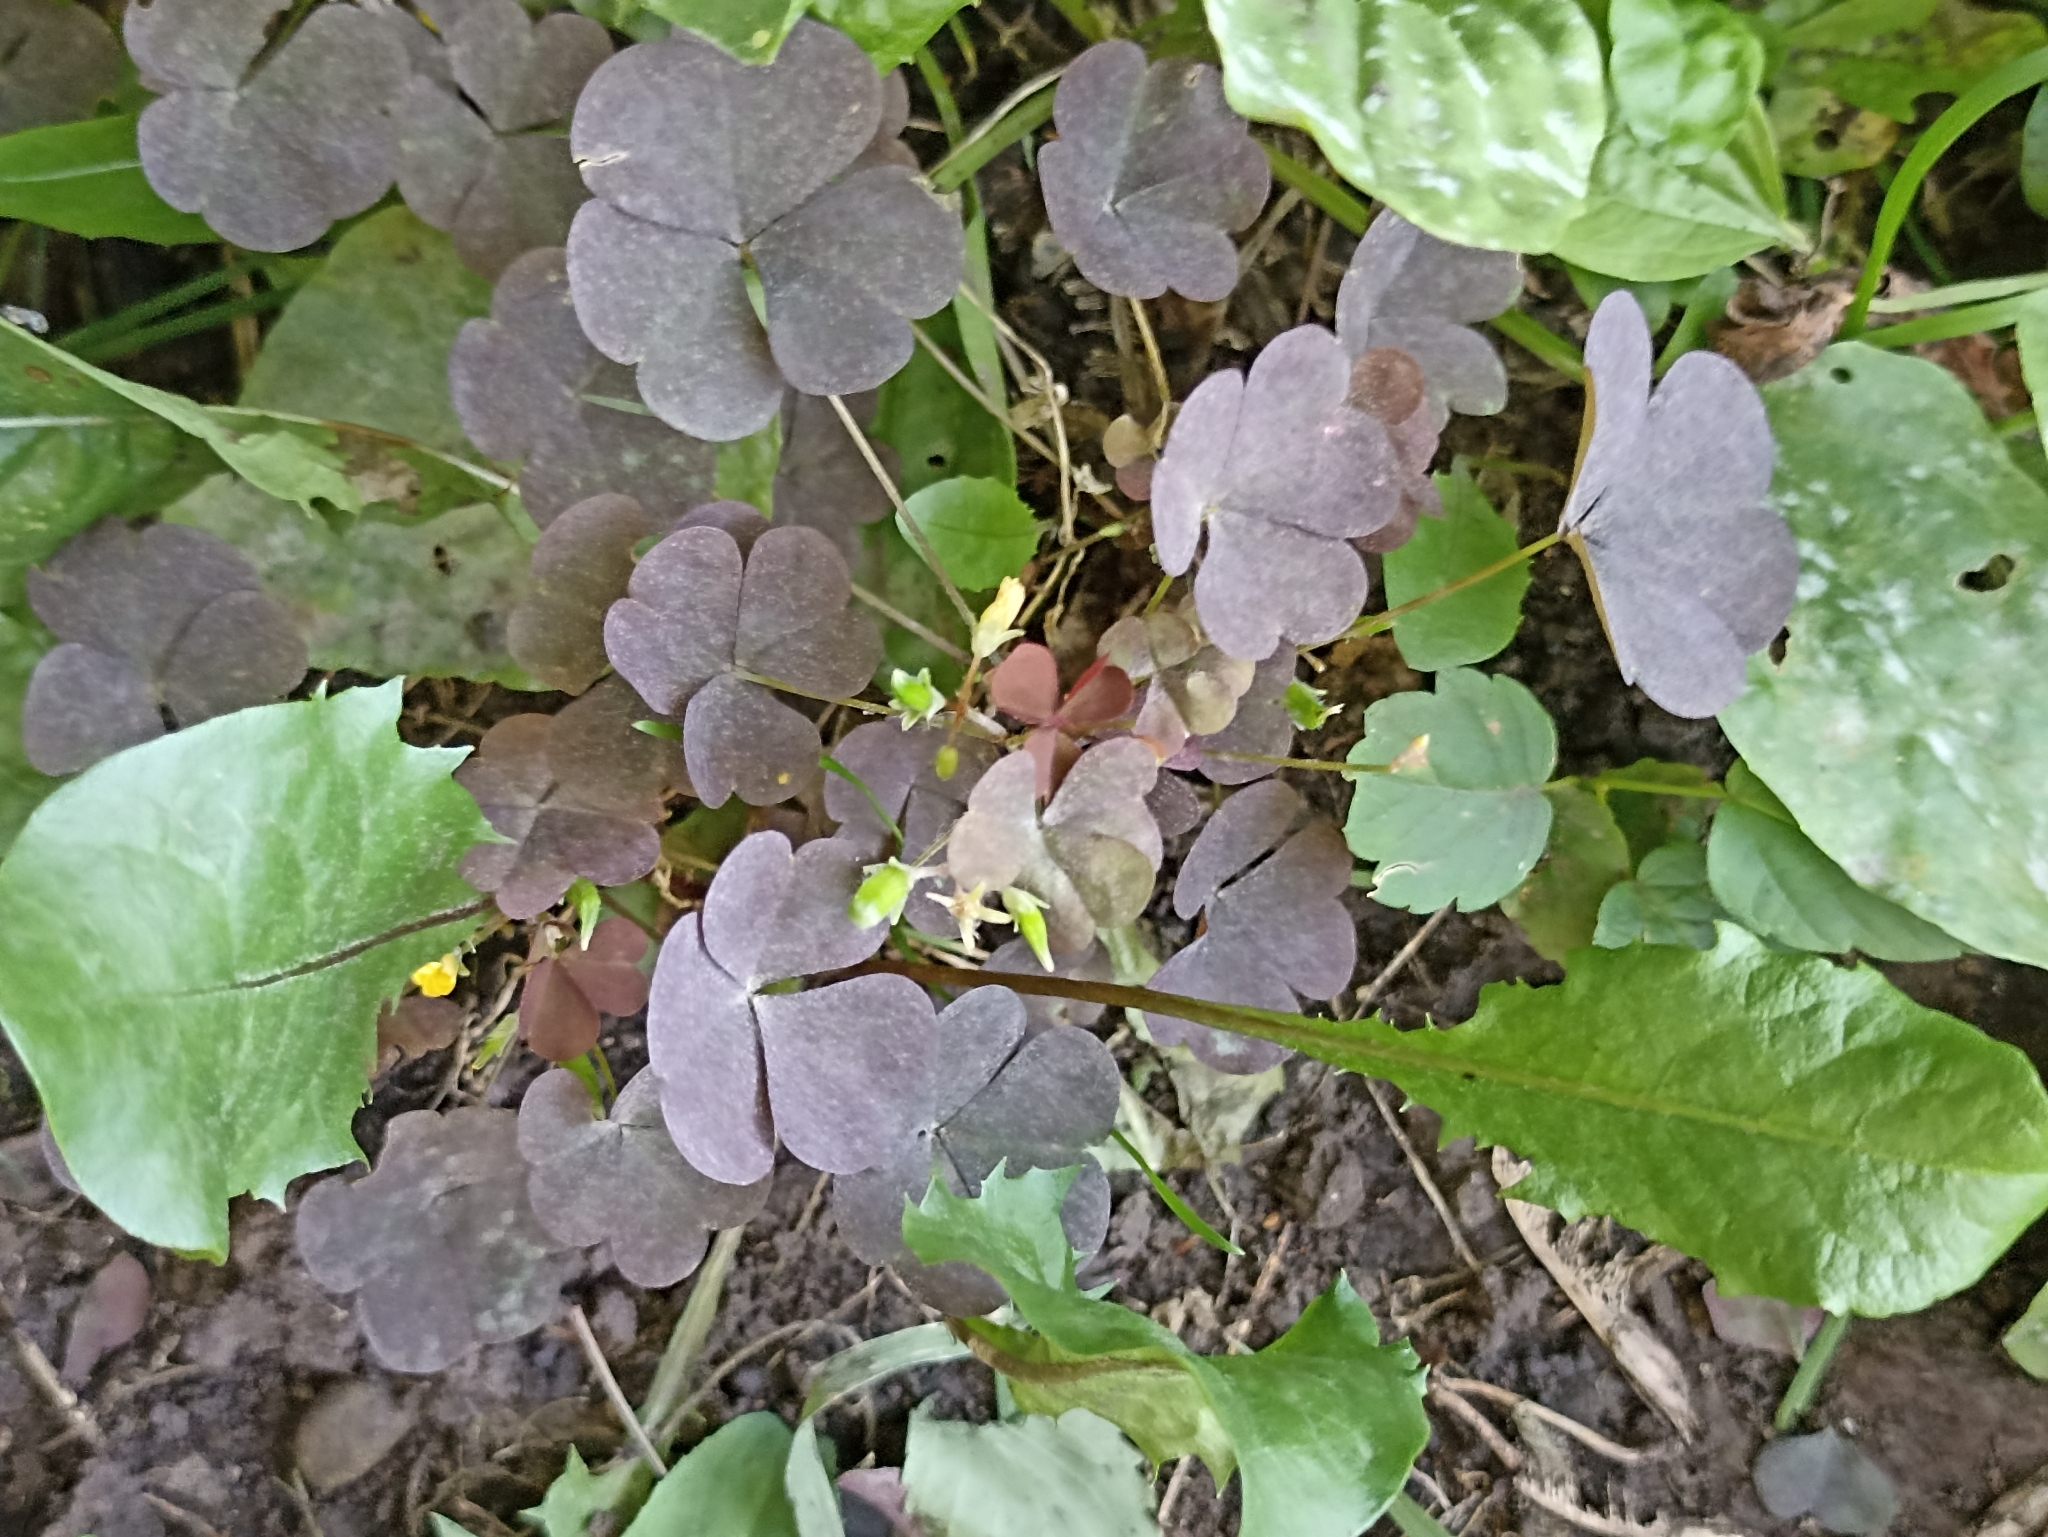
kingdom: Plantae
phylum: Tracheophyta
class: Magnoliopsida
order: Oxalidales
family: Oxalidaceae
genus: Oxalis
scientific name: Oxalis stricta
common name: Upright yellow-sorrel
